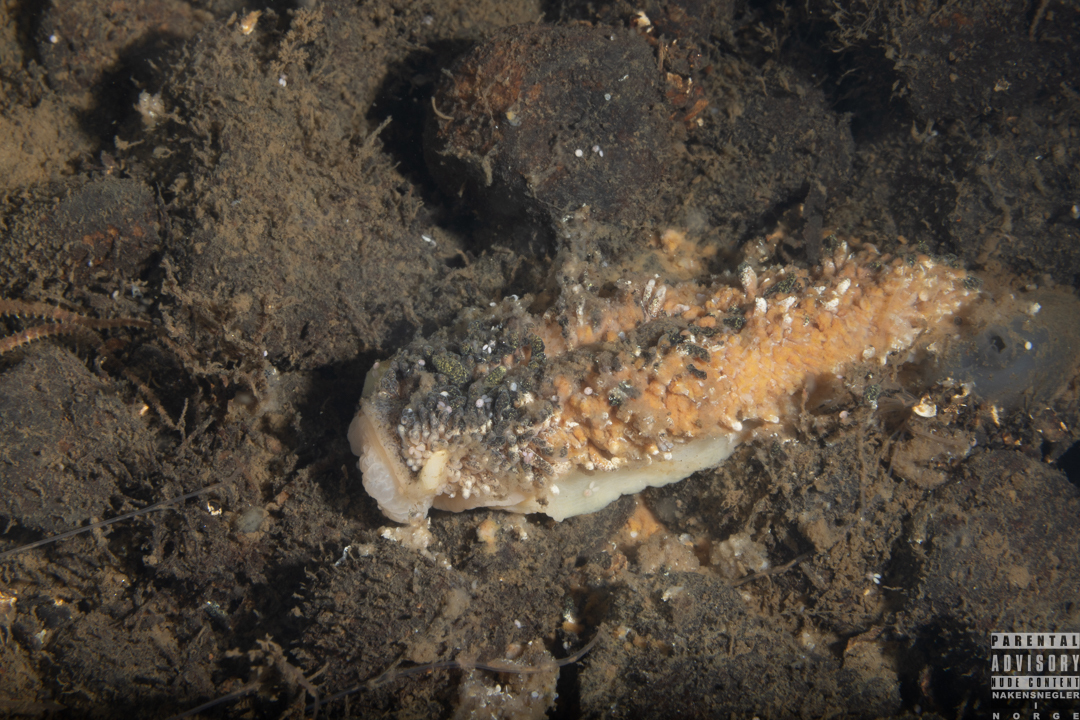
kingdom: Animalia
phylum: Mollusca
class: Gastropoda
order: Nudibranchia
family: Aeolidiidae
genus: Aeolidia
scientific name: Aeolidia papillosa
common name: Common grey sea slug
